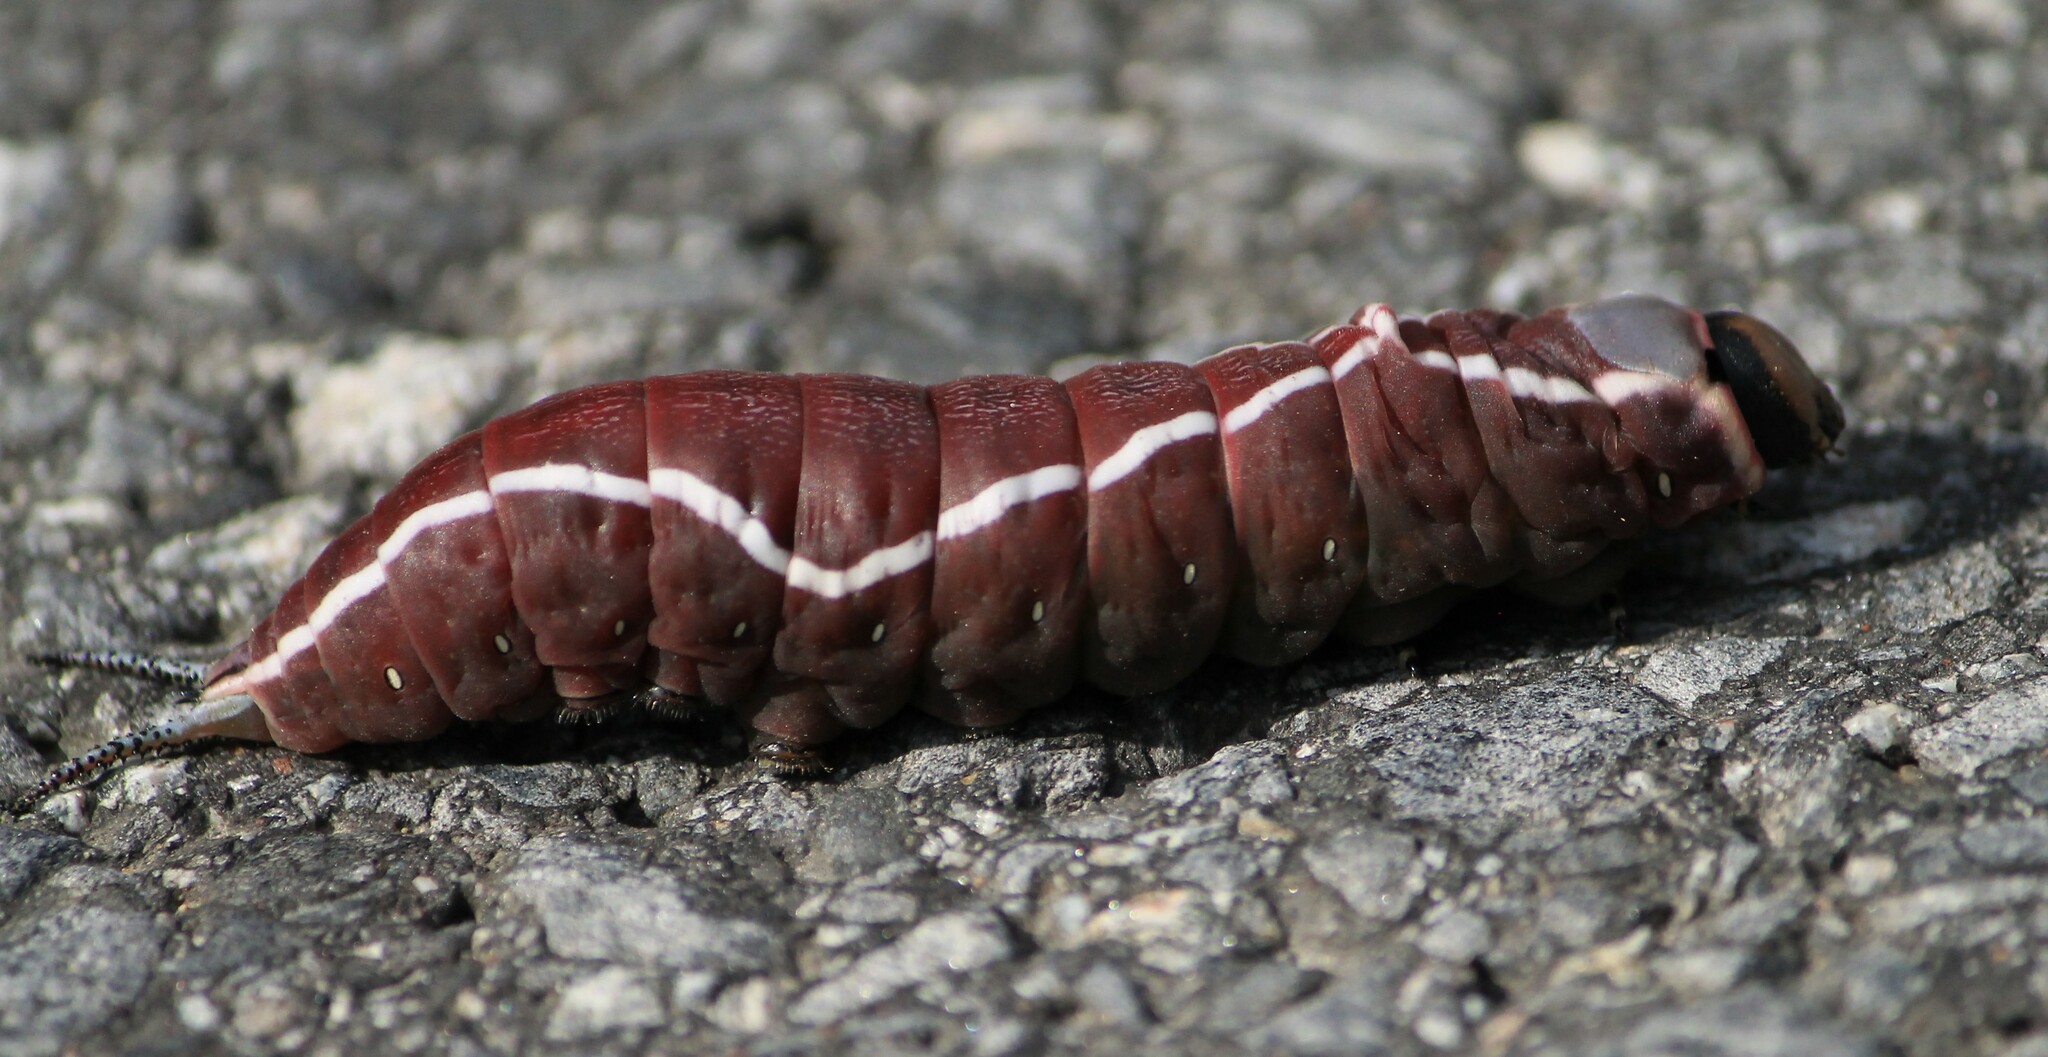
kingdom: Animalia
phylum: Arthropoda
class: Insecta
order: Lepidoptera
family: Notodontidae
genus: Cerura
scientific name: Cerura vinula
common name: Puss moth
